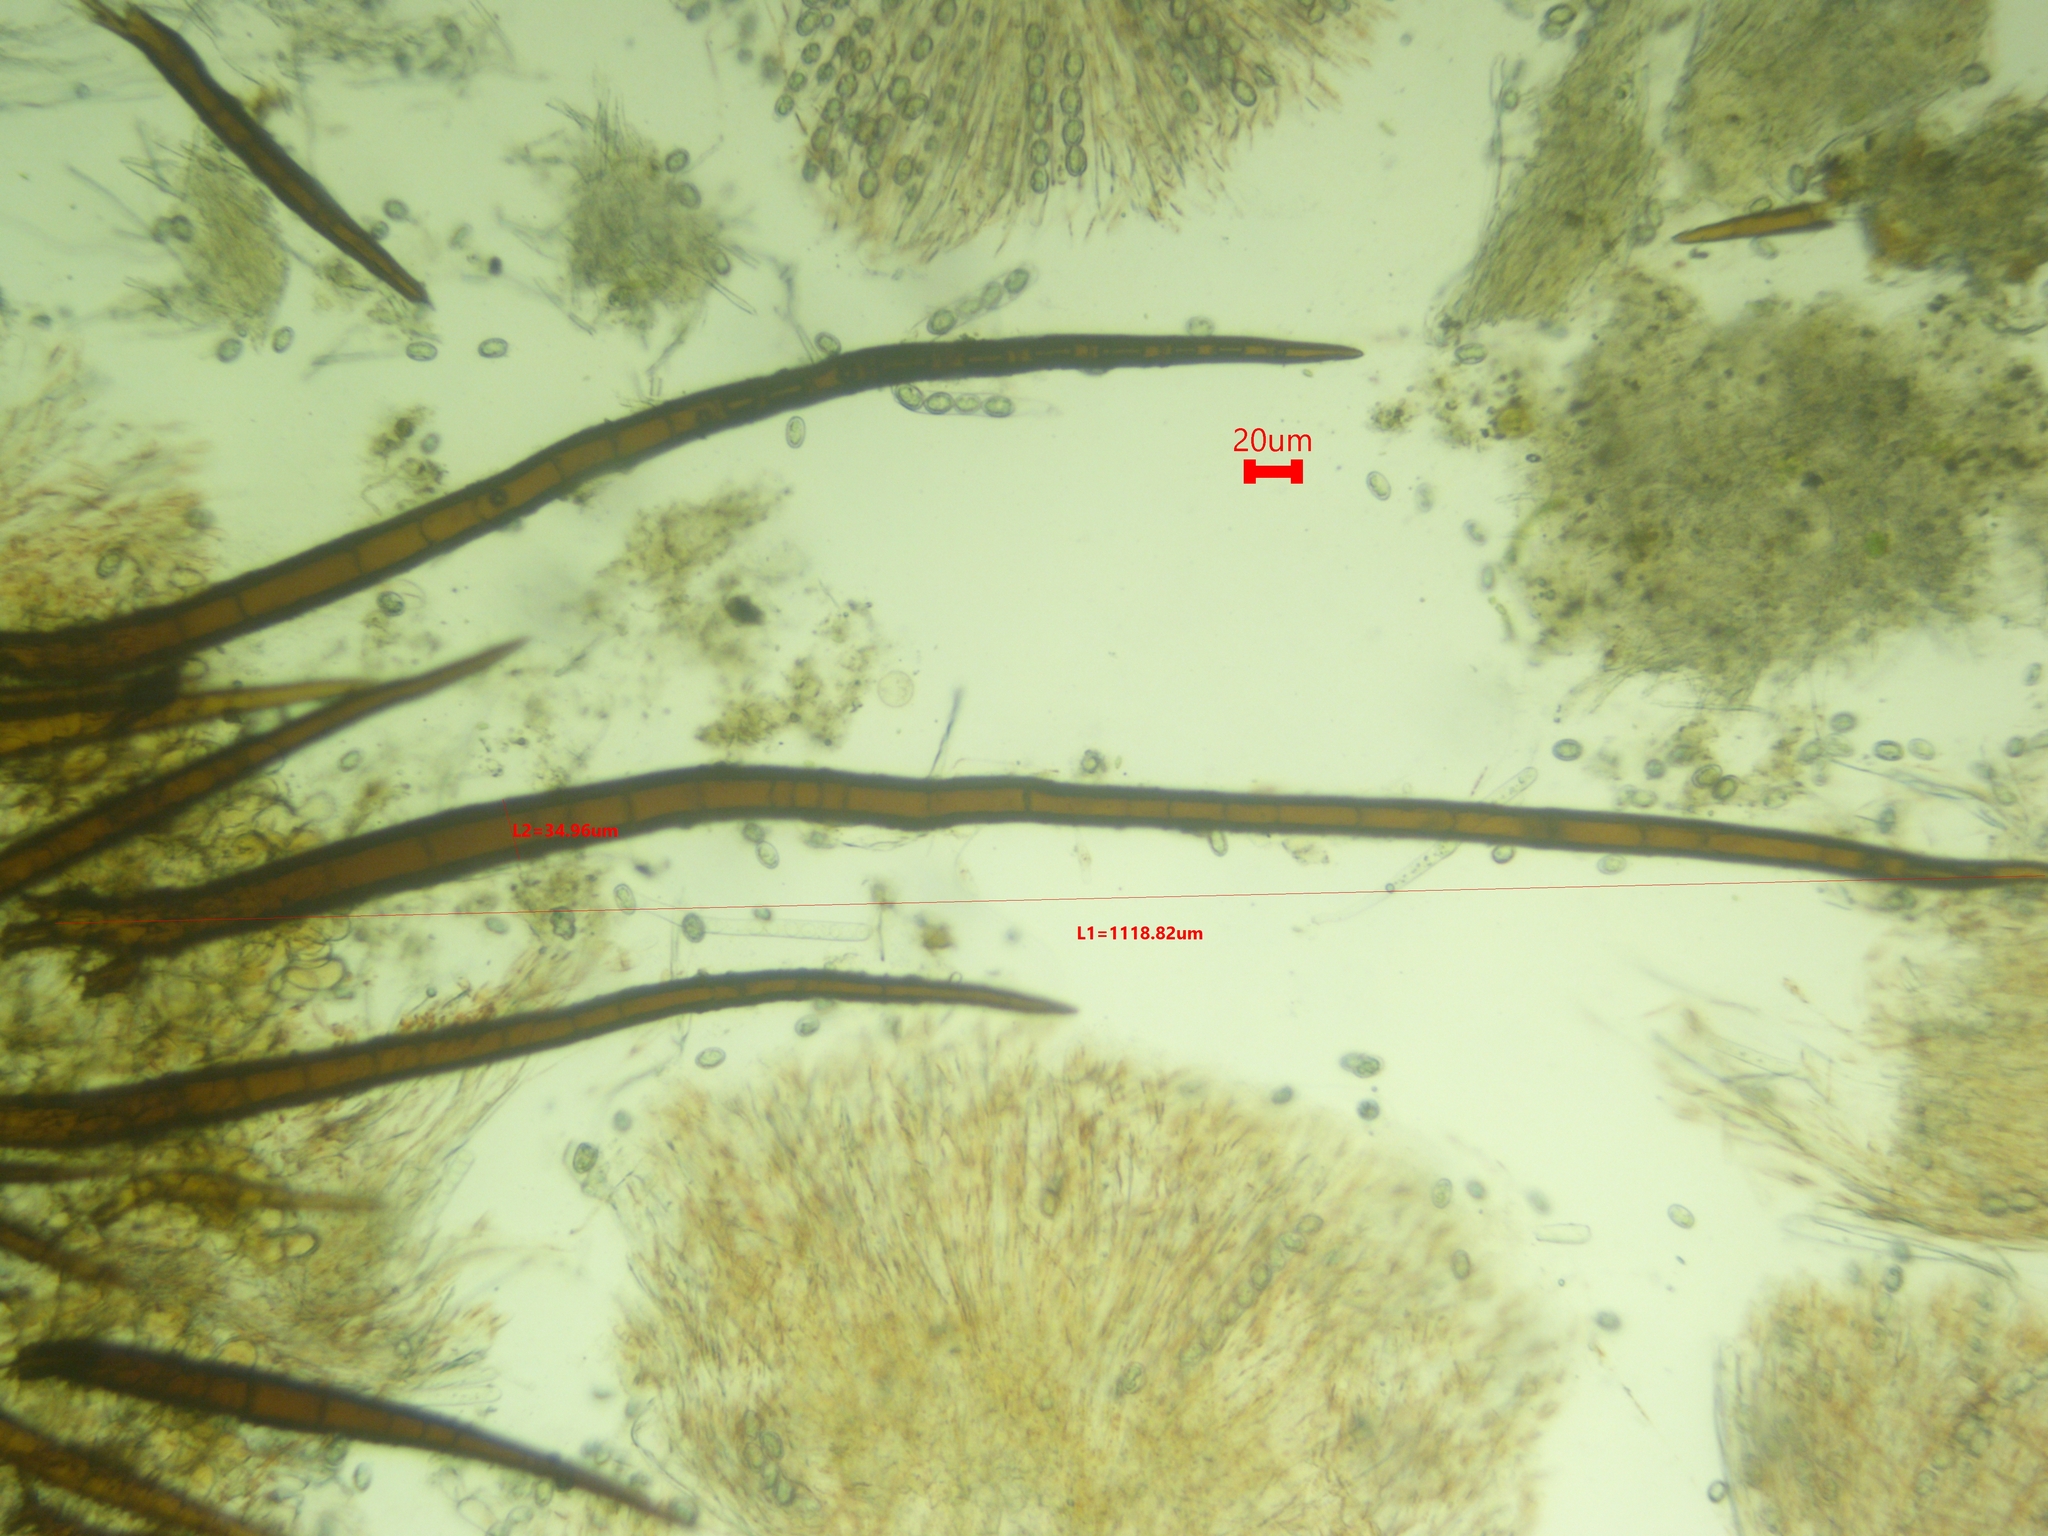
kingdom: Fungi
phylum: Ascomycota
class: Pezizomycetes
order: Pezizales
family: Pyronemataceae
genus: Scutellinia
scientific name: Scutellinia vitreola
